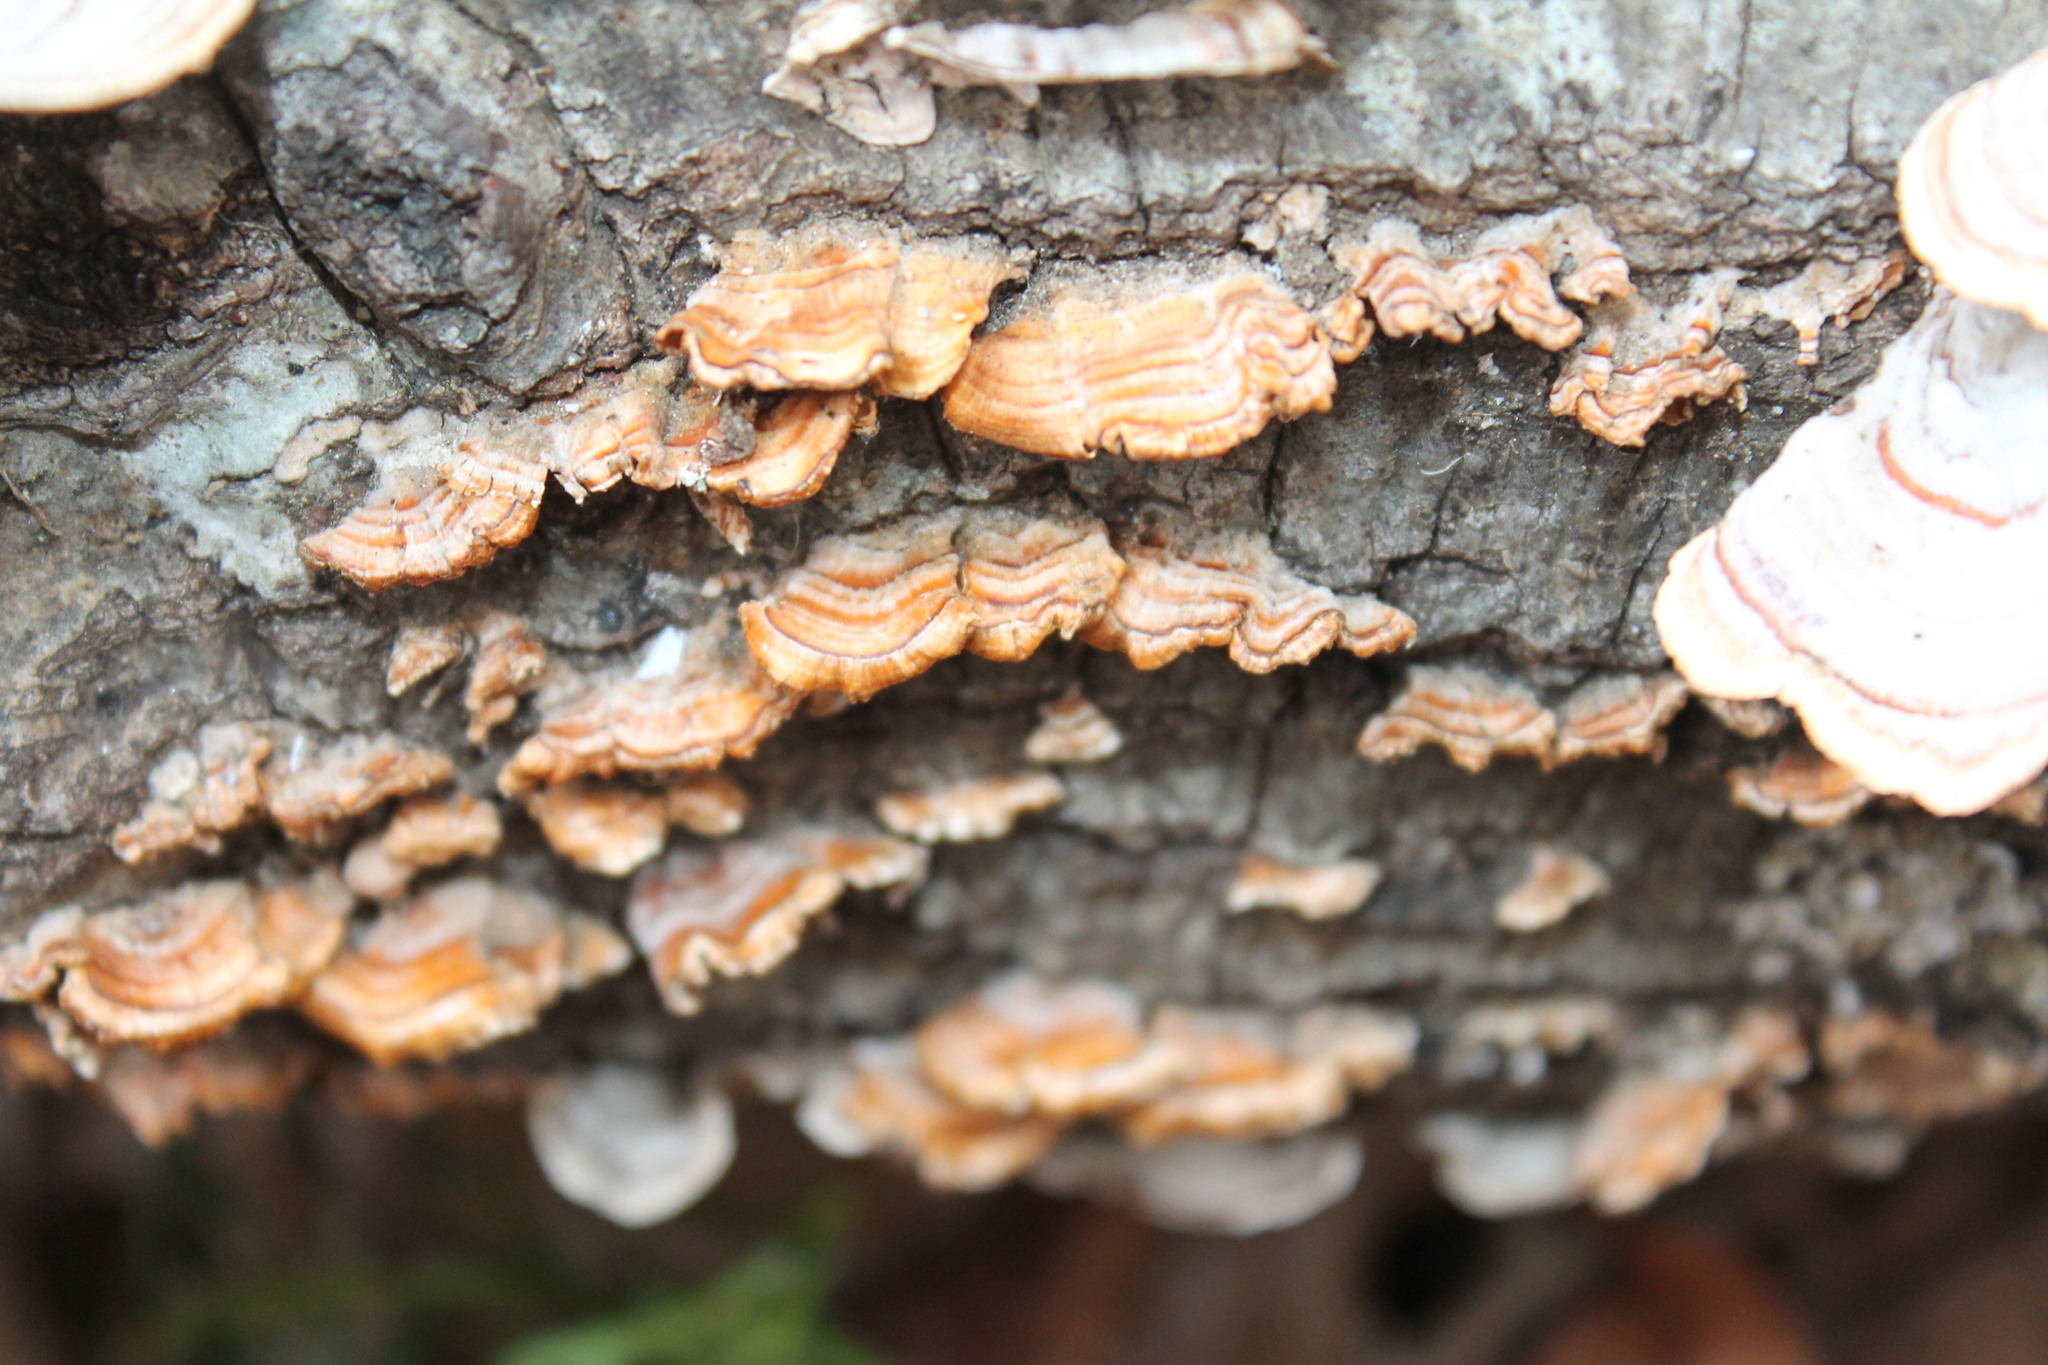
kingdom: Fungi
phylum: Basidiomycota
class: Agaricomycetes
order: Russulales
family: Stereaceae
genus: Stereum
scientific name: Stereum complicatum
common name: Crowded parchment
